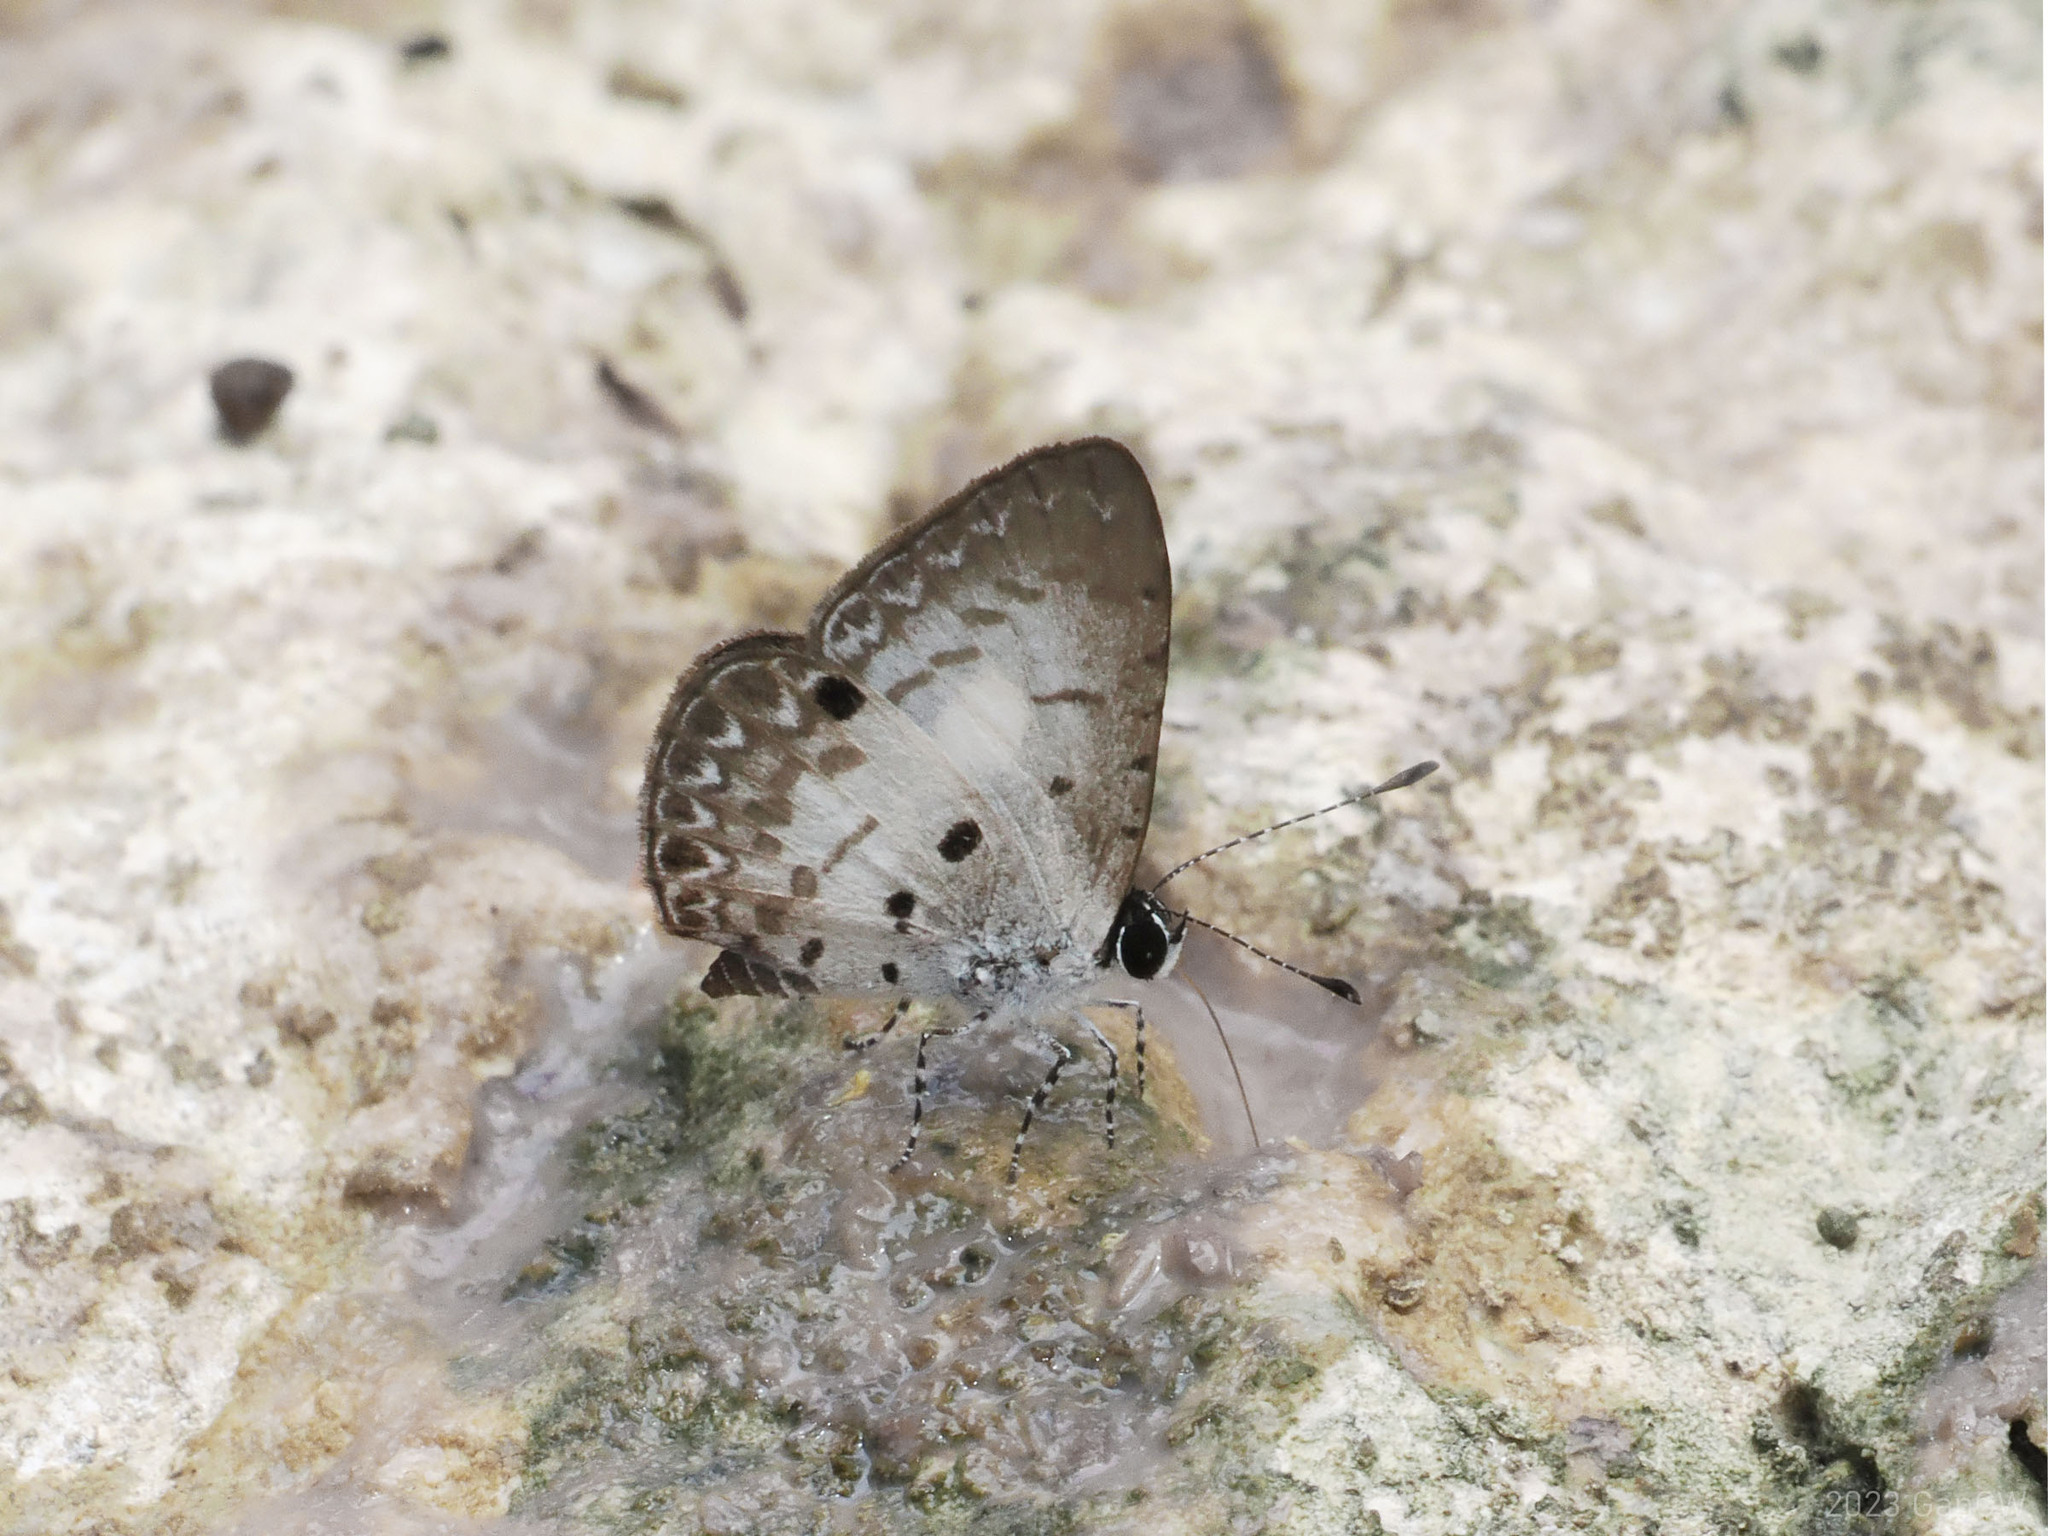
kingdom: Animalia
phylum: Arthropoda
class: Insecta
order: Lepidoptera
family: Lycaenidae
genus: Megisba
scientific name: Megisba strongyle
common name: Small pied blue
